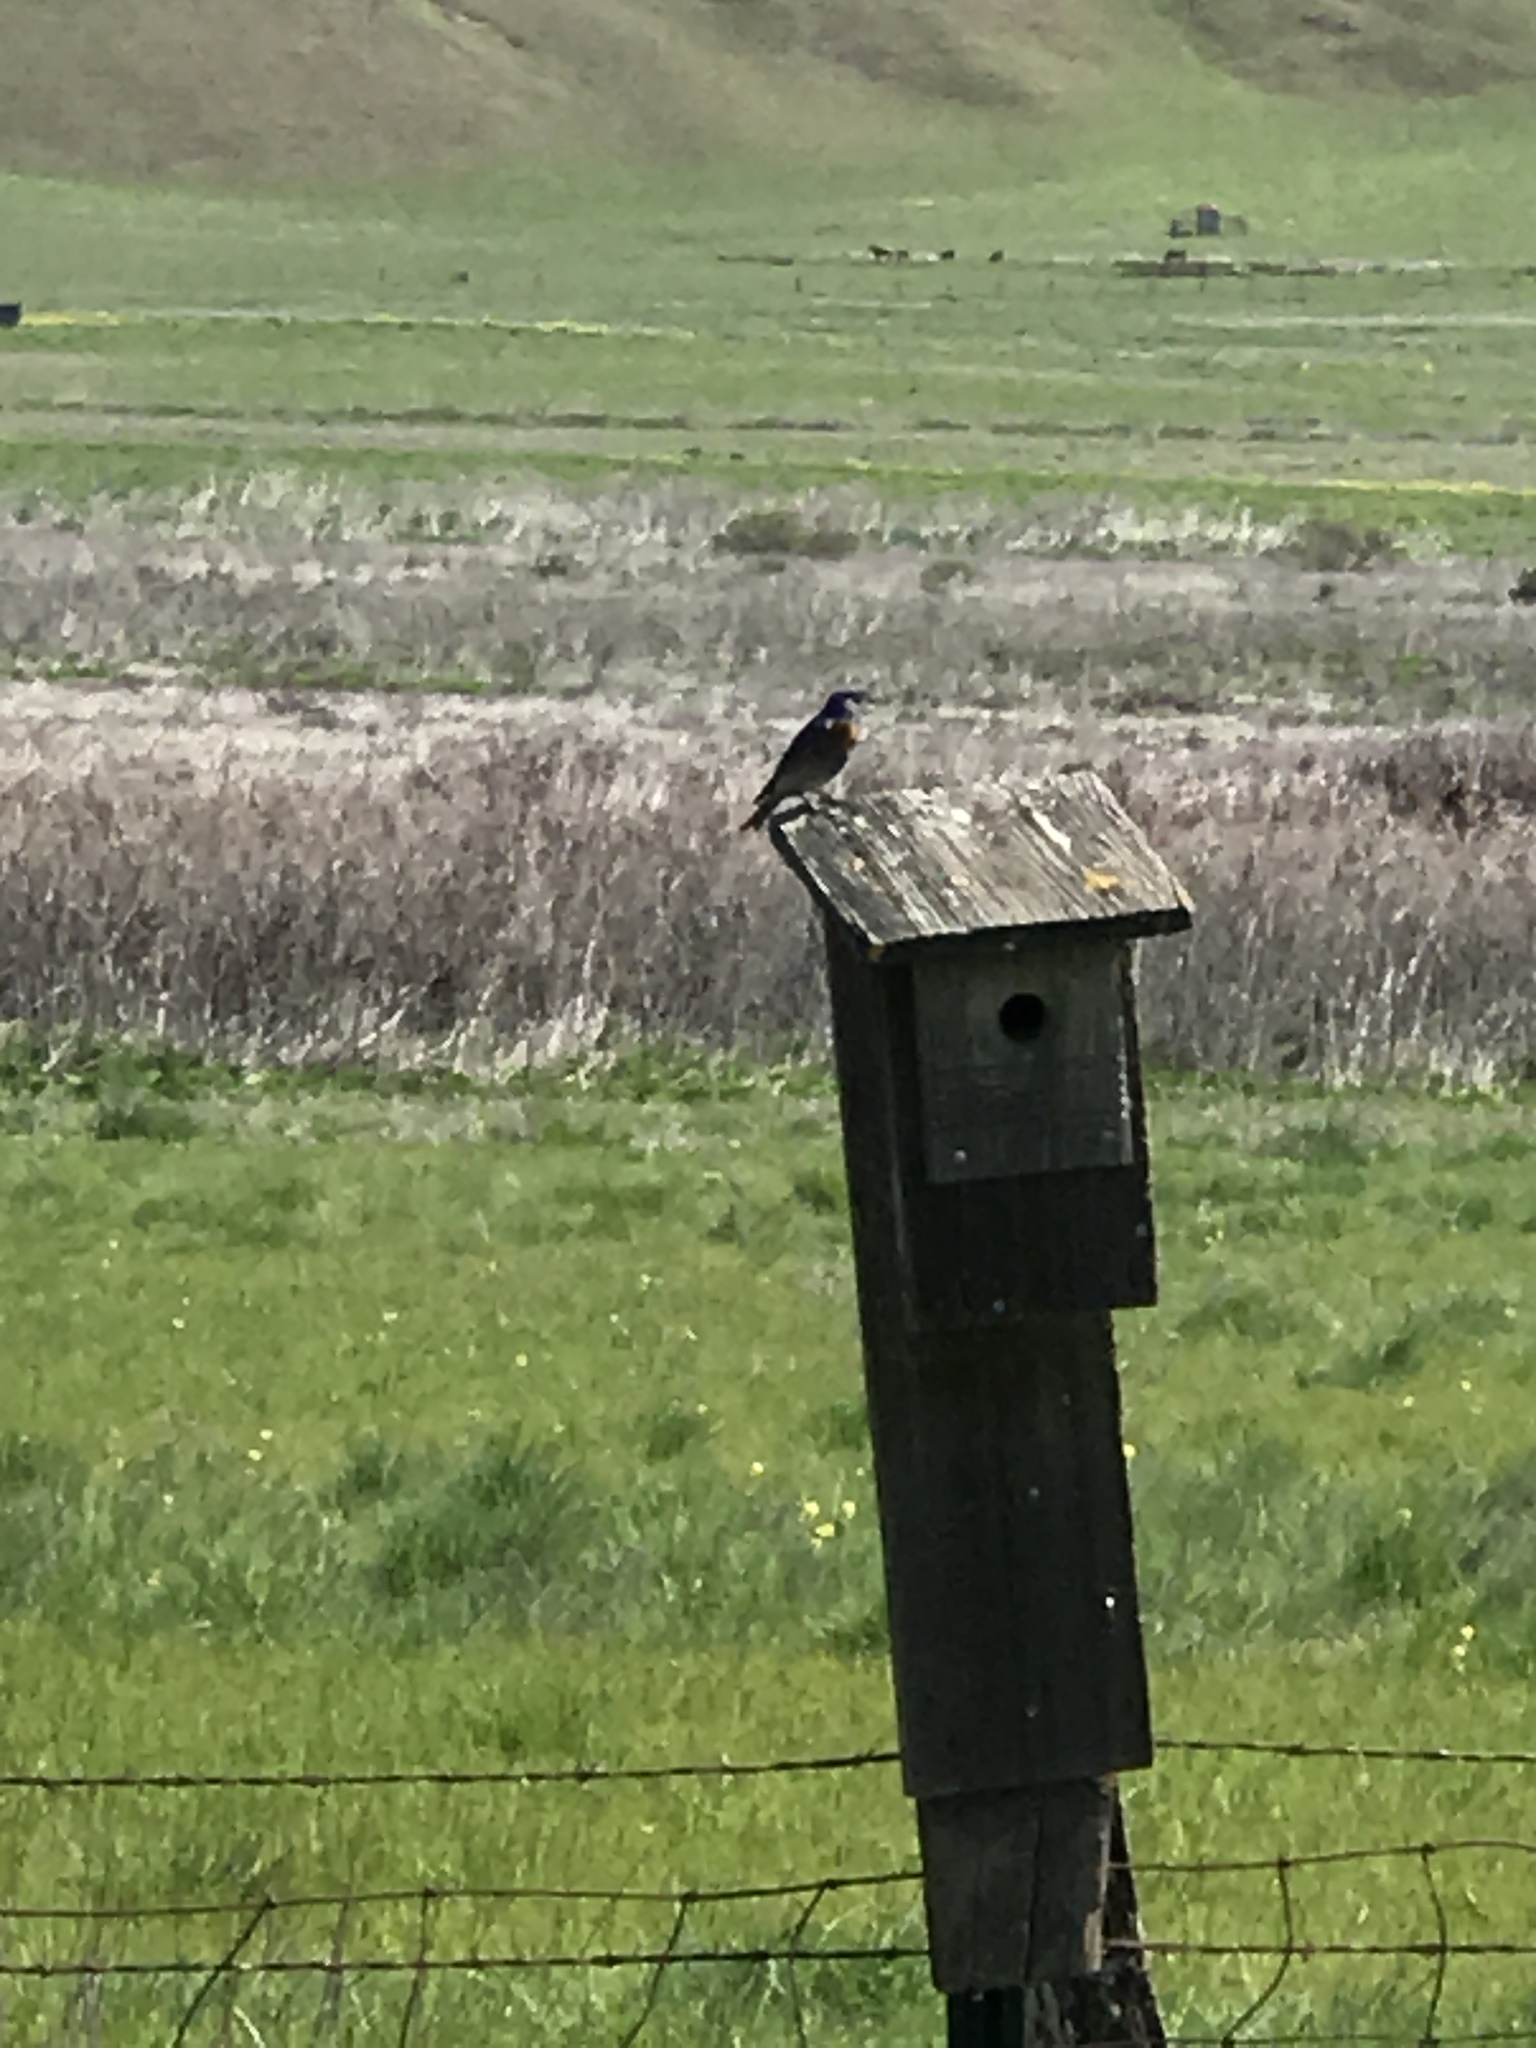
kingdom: Animalia
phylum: Chordata
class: Aves
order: Passeriformes
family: Turdidae
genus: Sialia
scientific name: Sialia mexicana
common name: Western bluebird
